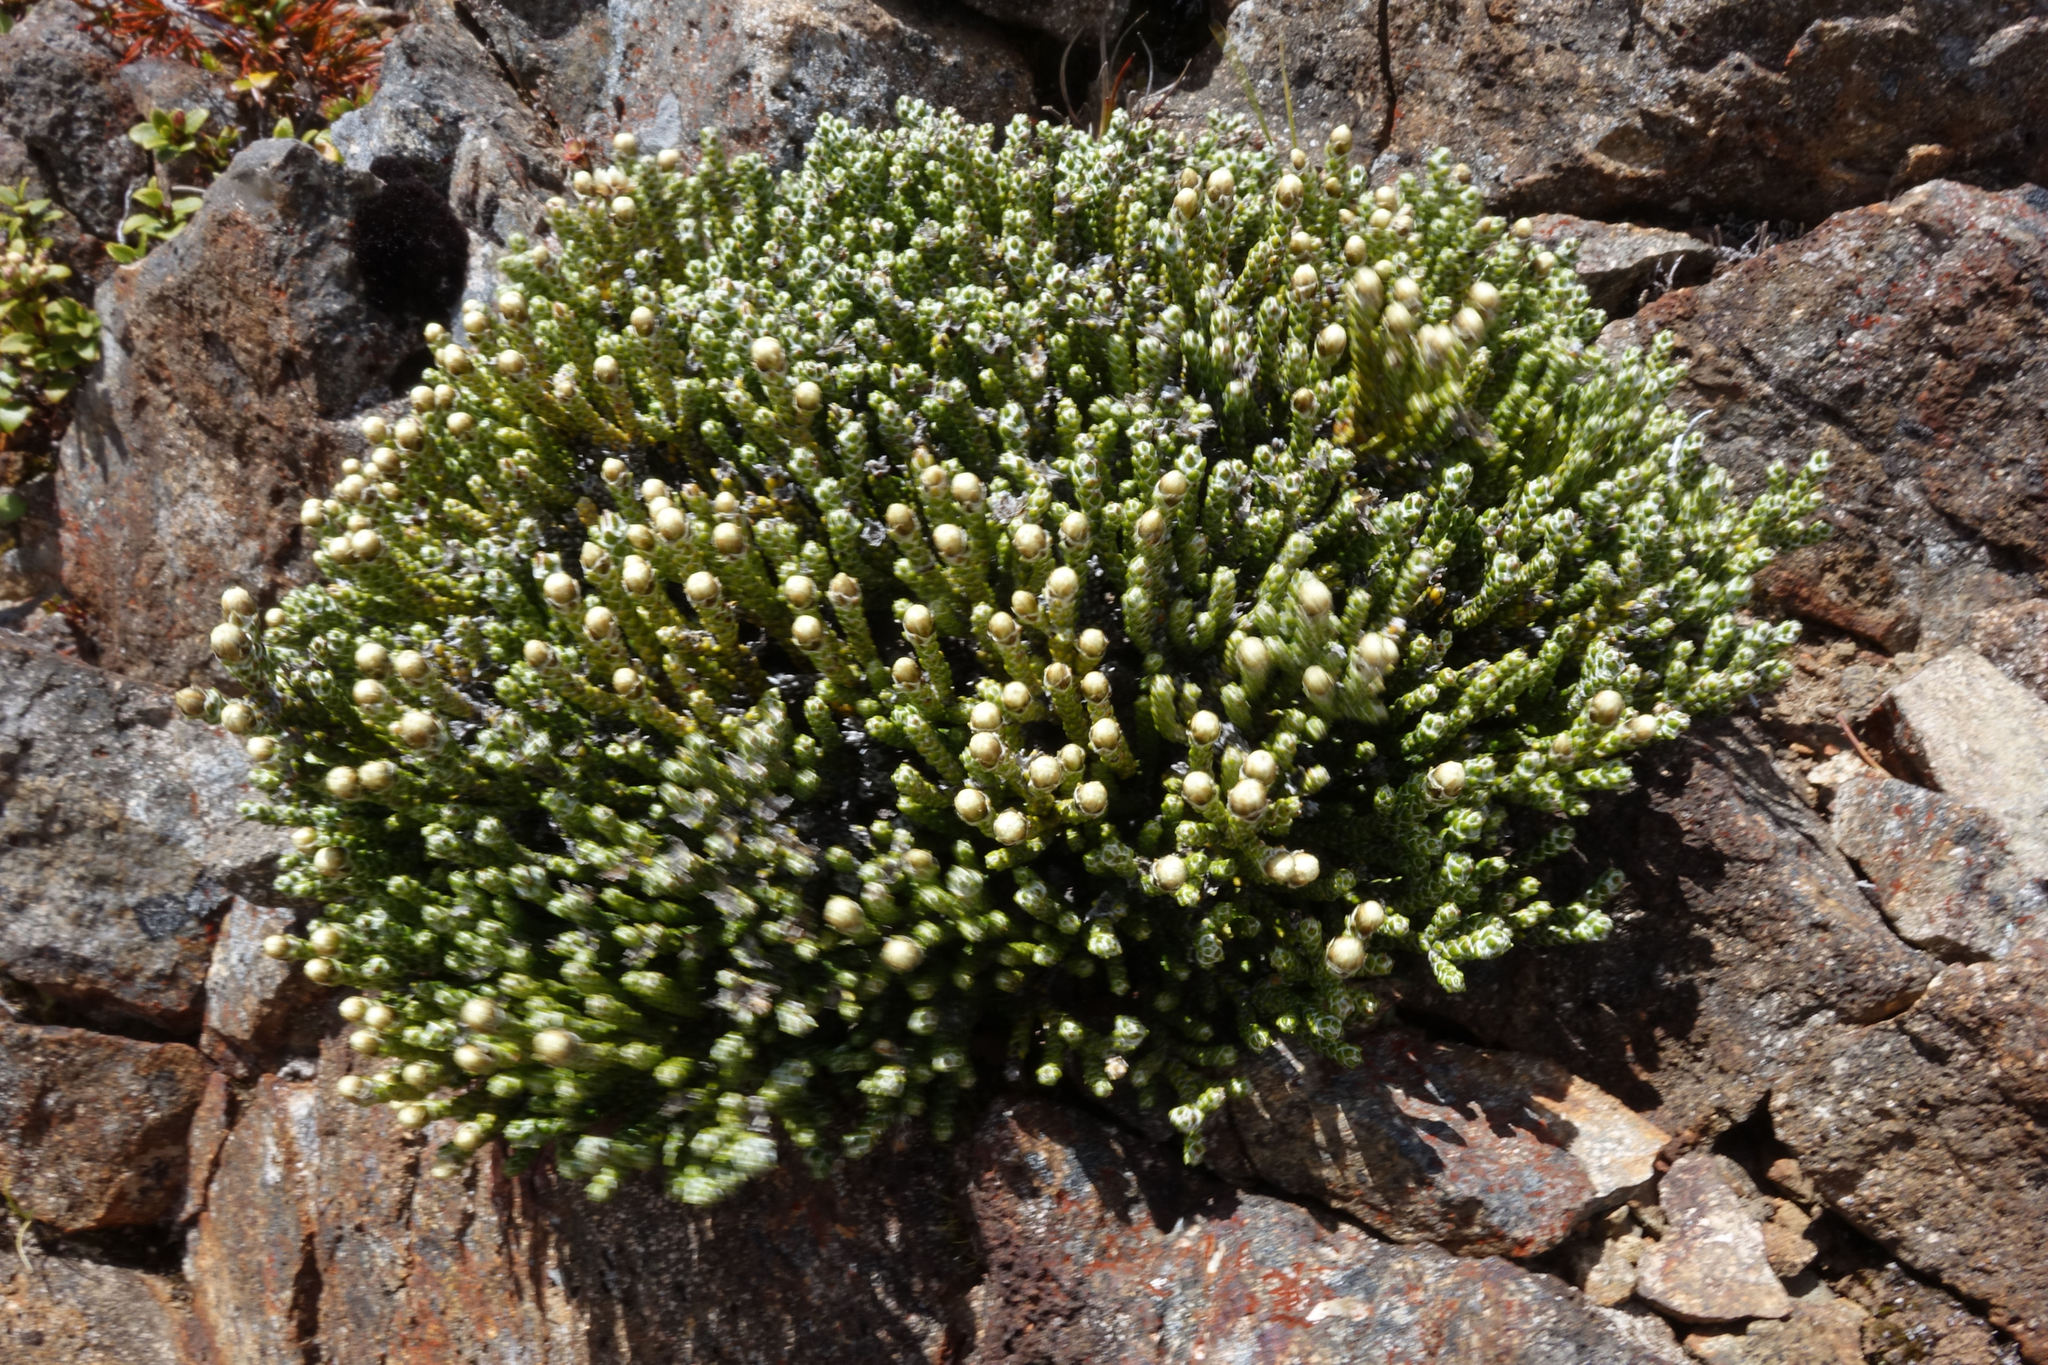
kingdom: Plantae
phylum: Tracheophyta
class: Magnoliopsida
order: Asterales
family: Asteraceae
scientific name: Asteraceae
